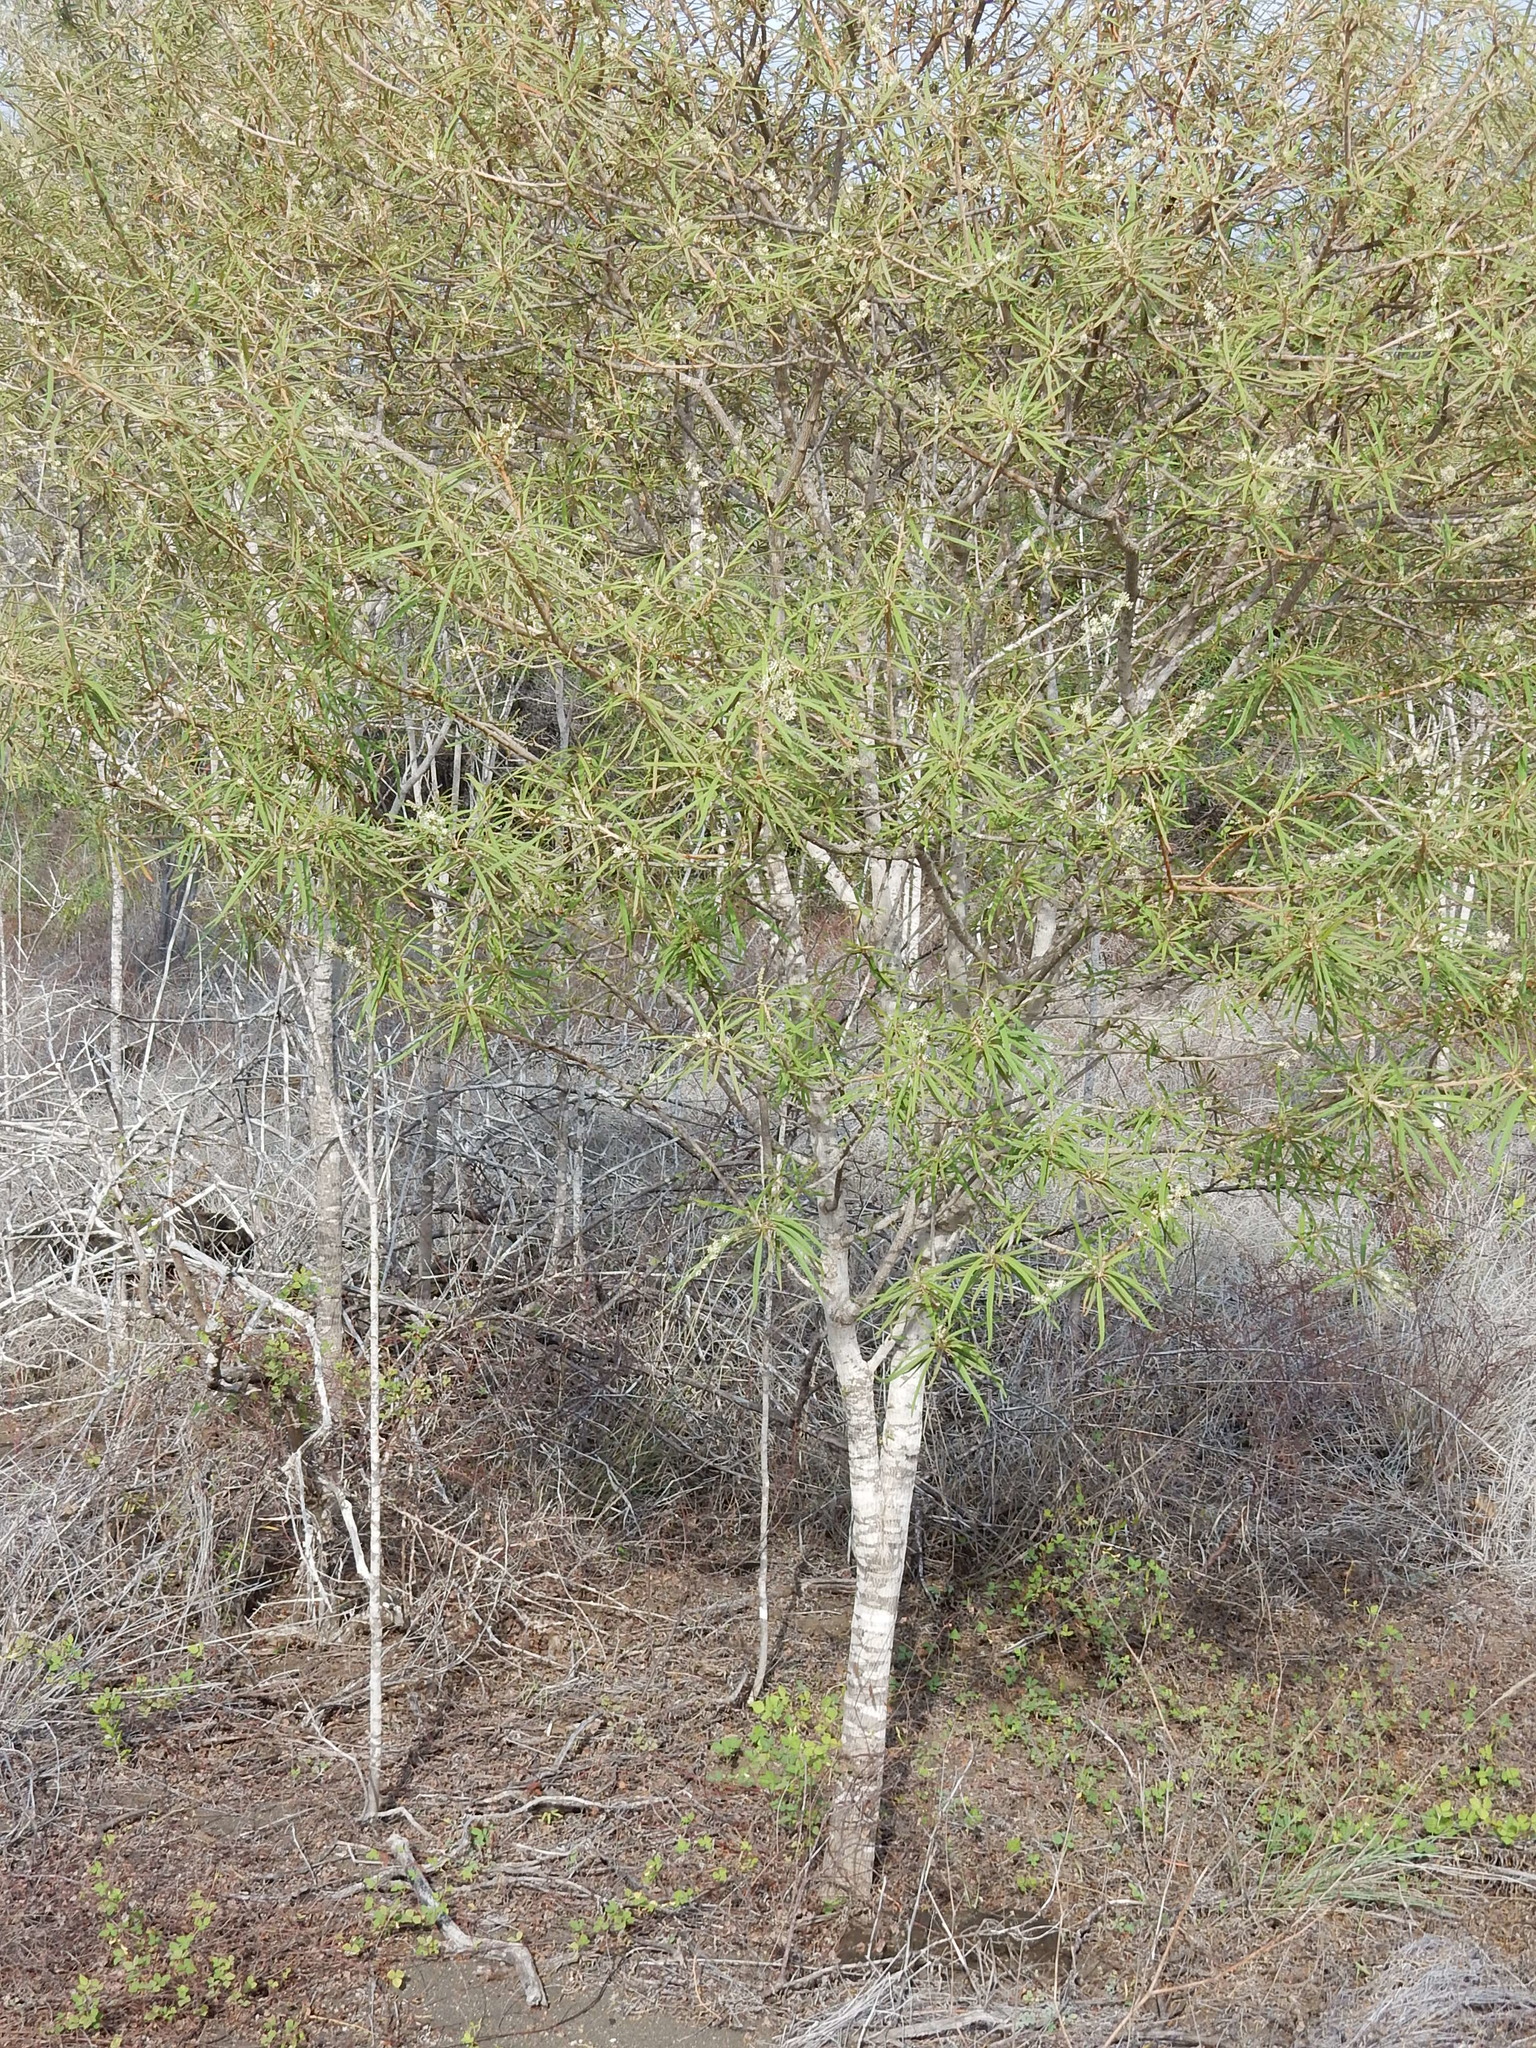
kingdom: Plantae
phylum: Tracheophyta
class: Magnoliopsida
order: Malpighiales
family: Euphorbiaceae
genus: Croton
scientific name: Croton scouleri
